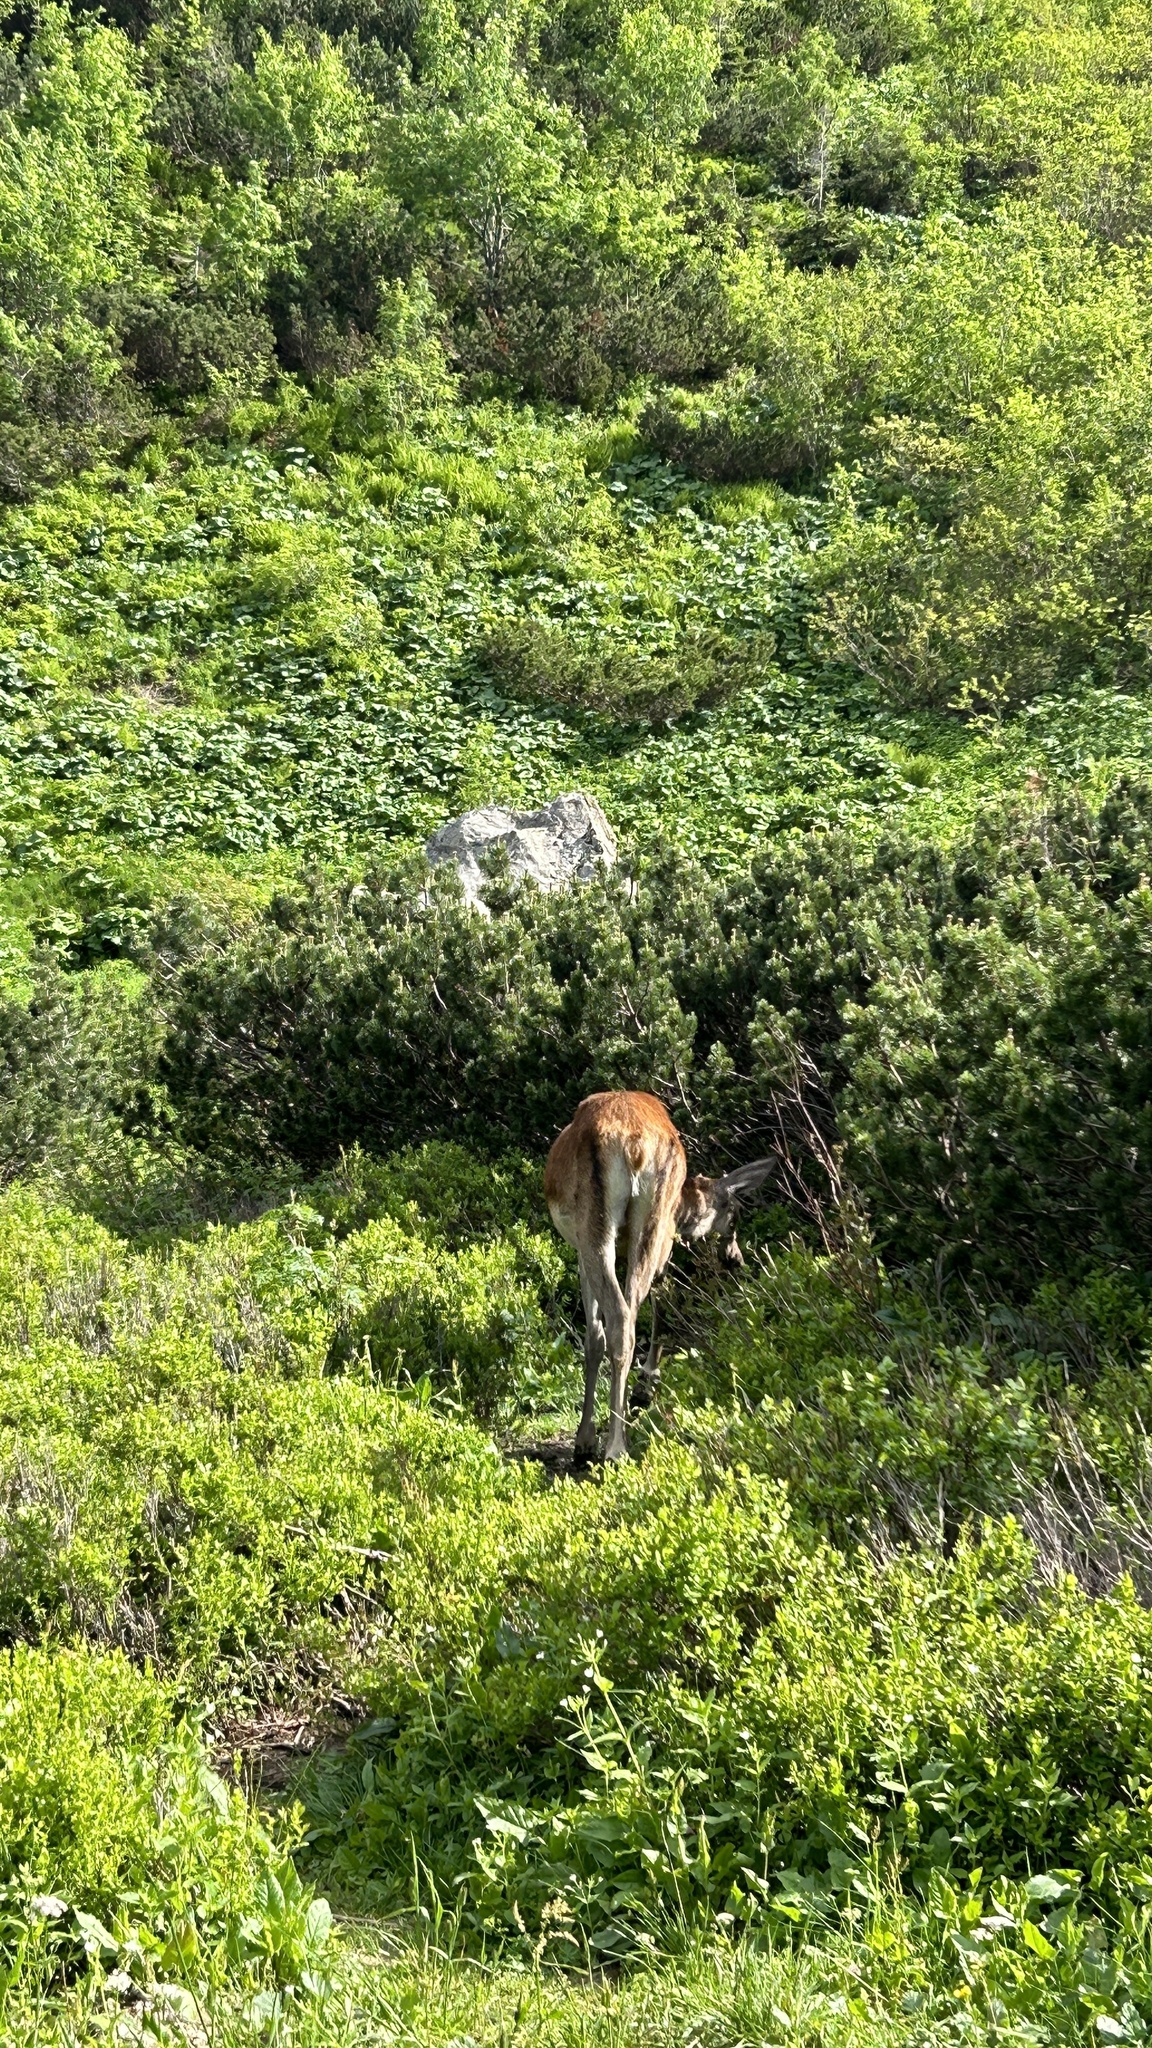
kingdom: Animalia
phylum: Chordata
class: Mammalia
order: Artiodactyla
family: Cervidae
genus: Cervus
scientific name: Cervus elaphus
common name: Red deer
